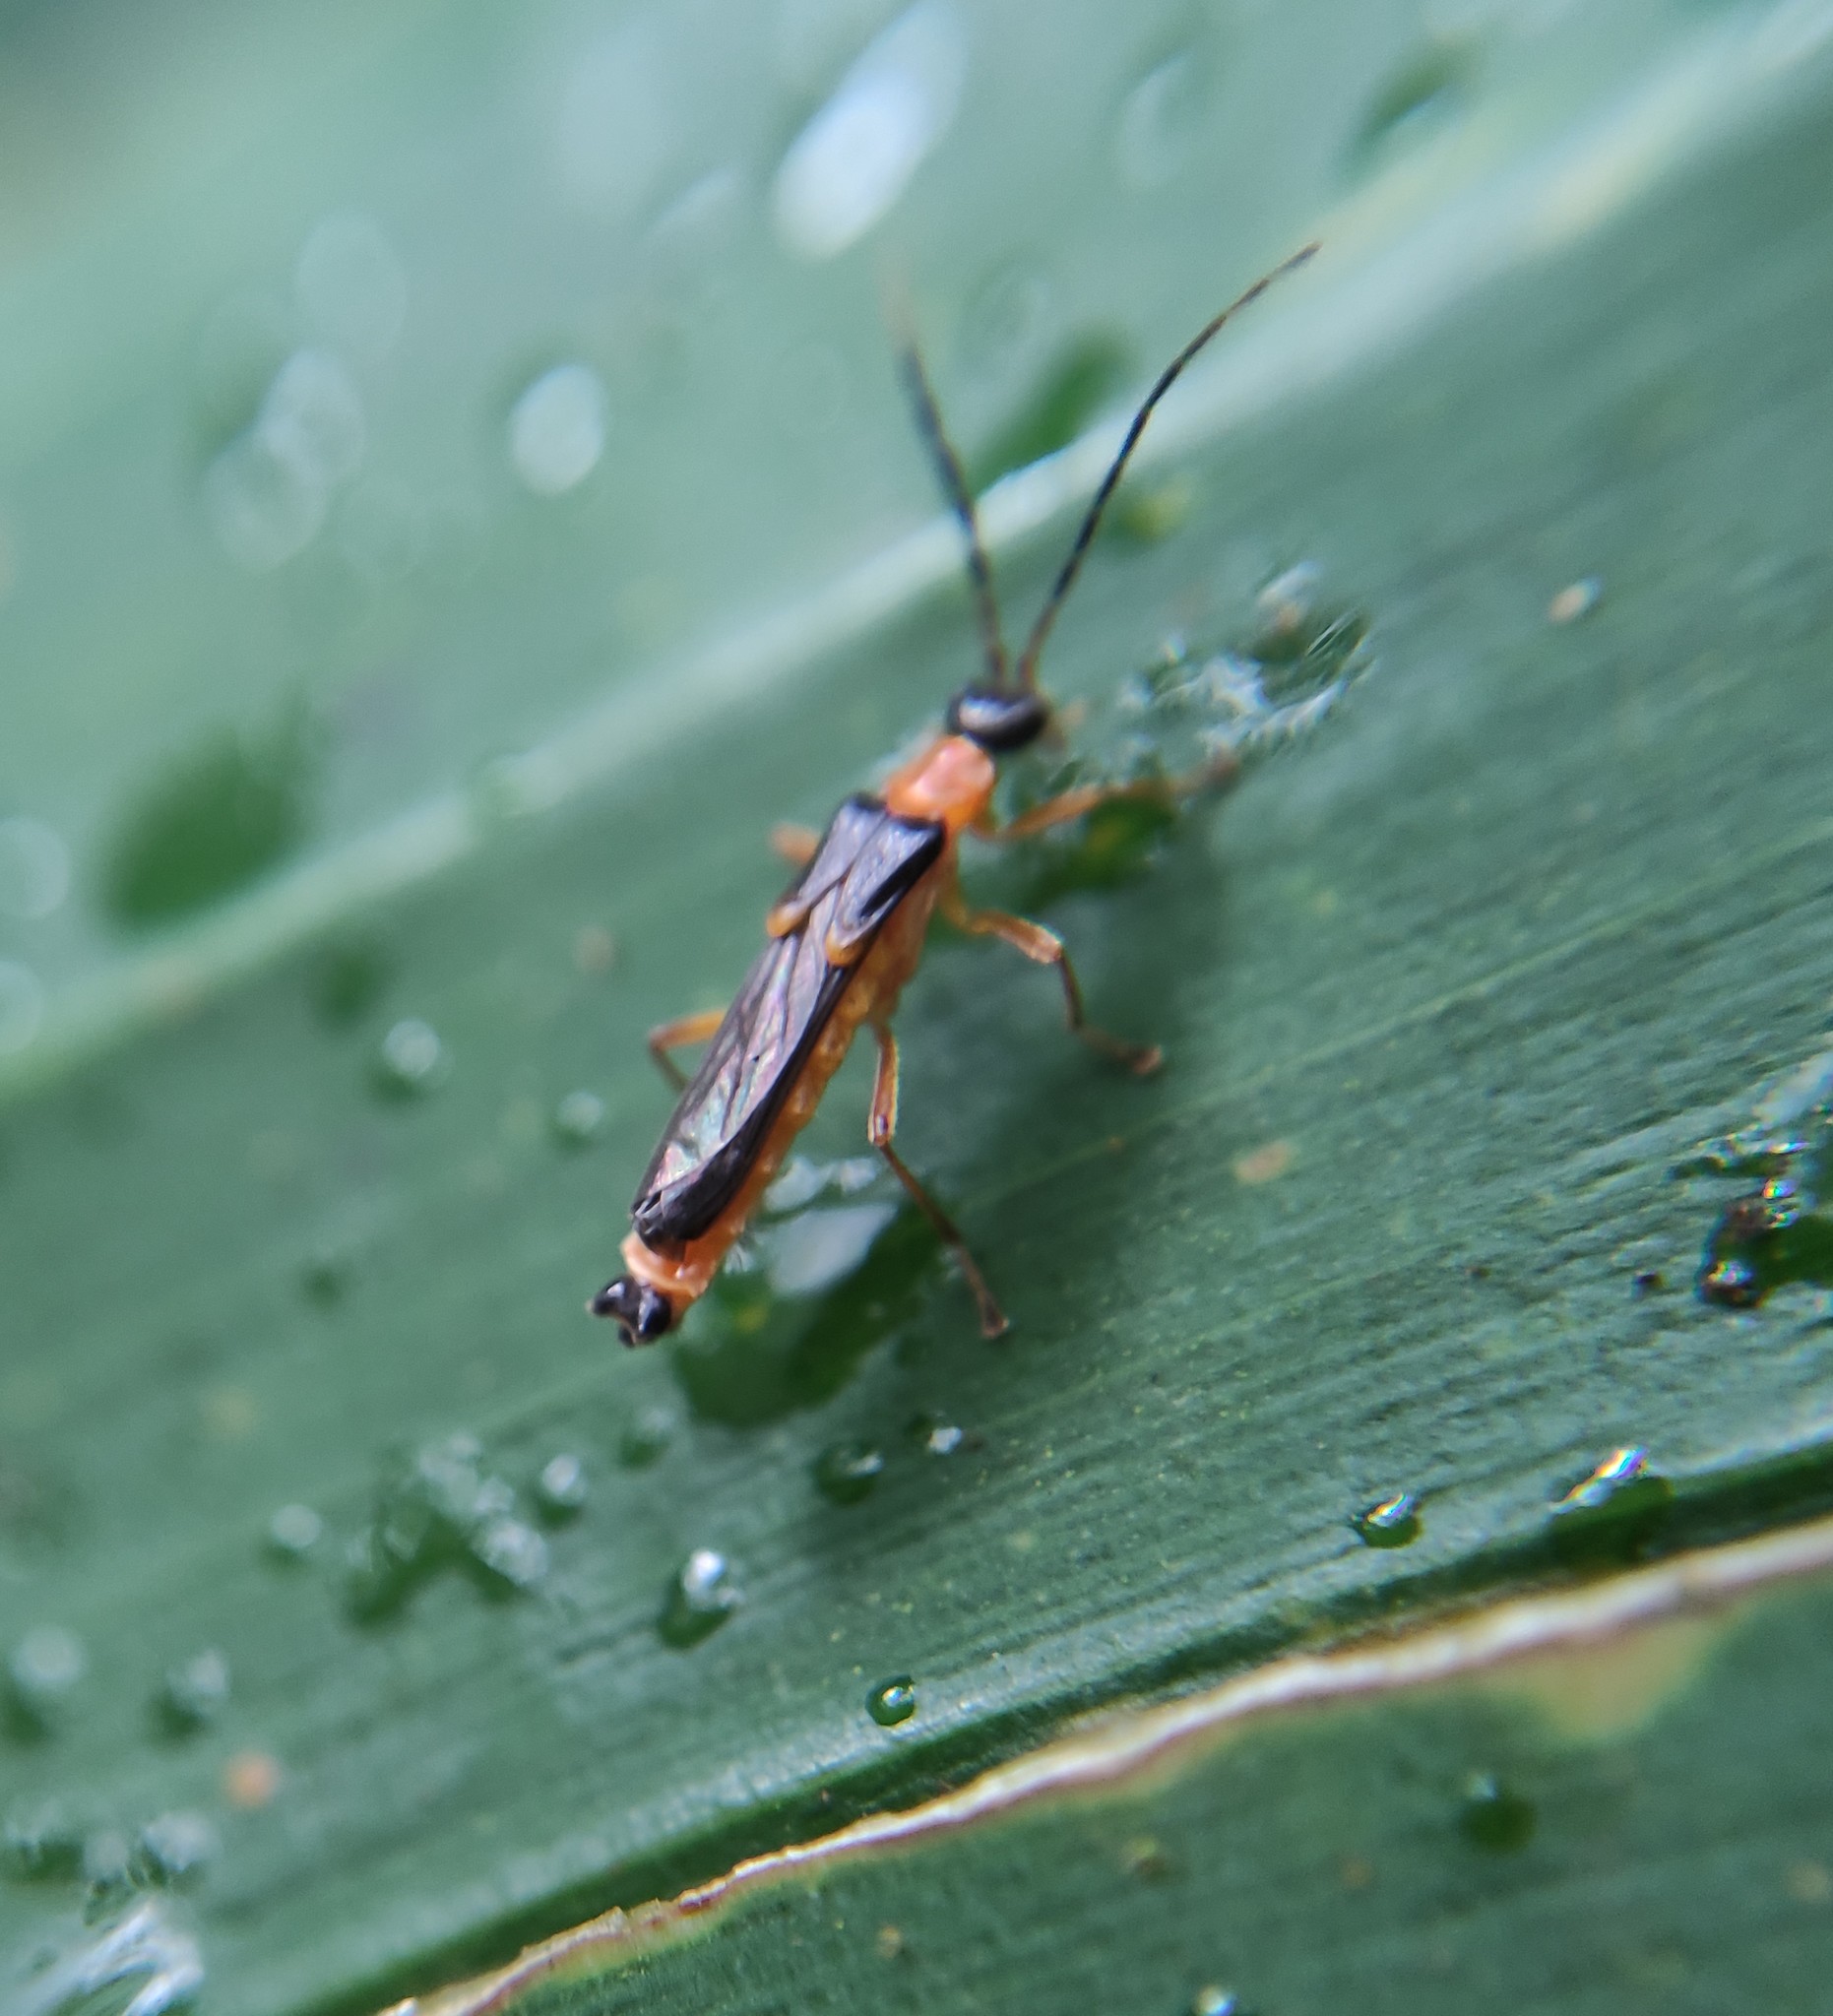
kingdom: Animalia
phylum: Arthropoda
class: Insecta
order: Coleoptera
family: Cantharidae
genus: Macromalthinus
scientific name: Macromalthinus
